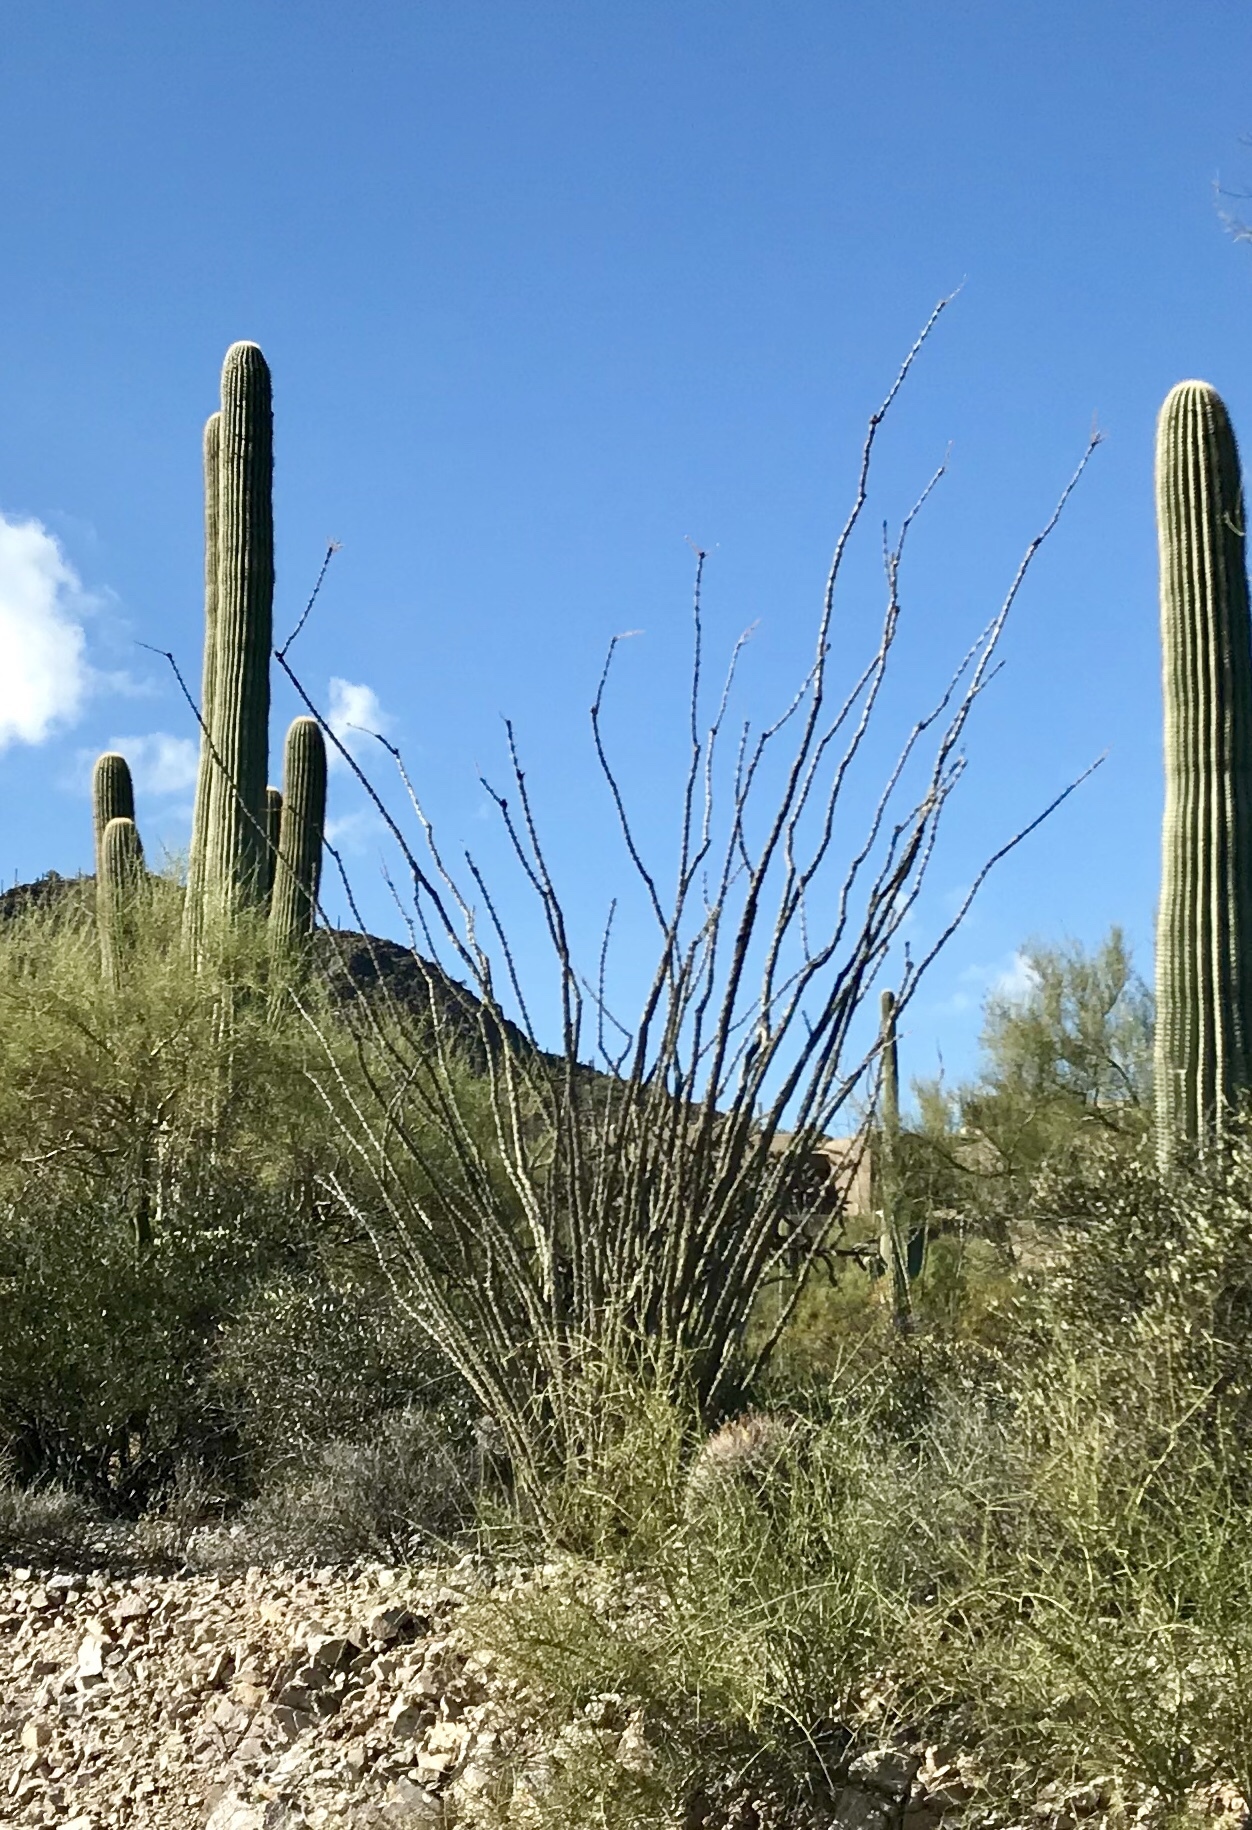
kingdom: Plantae
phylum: Tracheophyta
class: Magnoliopsida
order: Ericales
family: Fouquieriaceae
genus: Fouquieria
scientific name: Fouquieria splendens
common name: Vine-cactus
